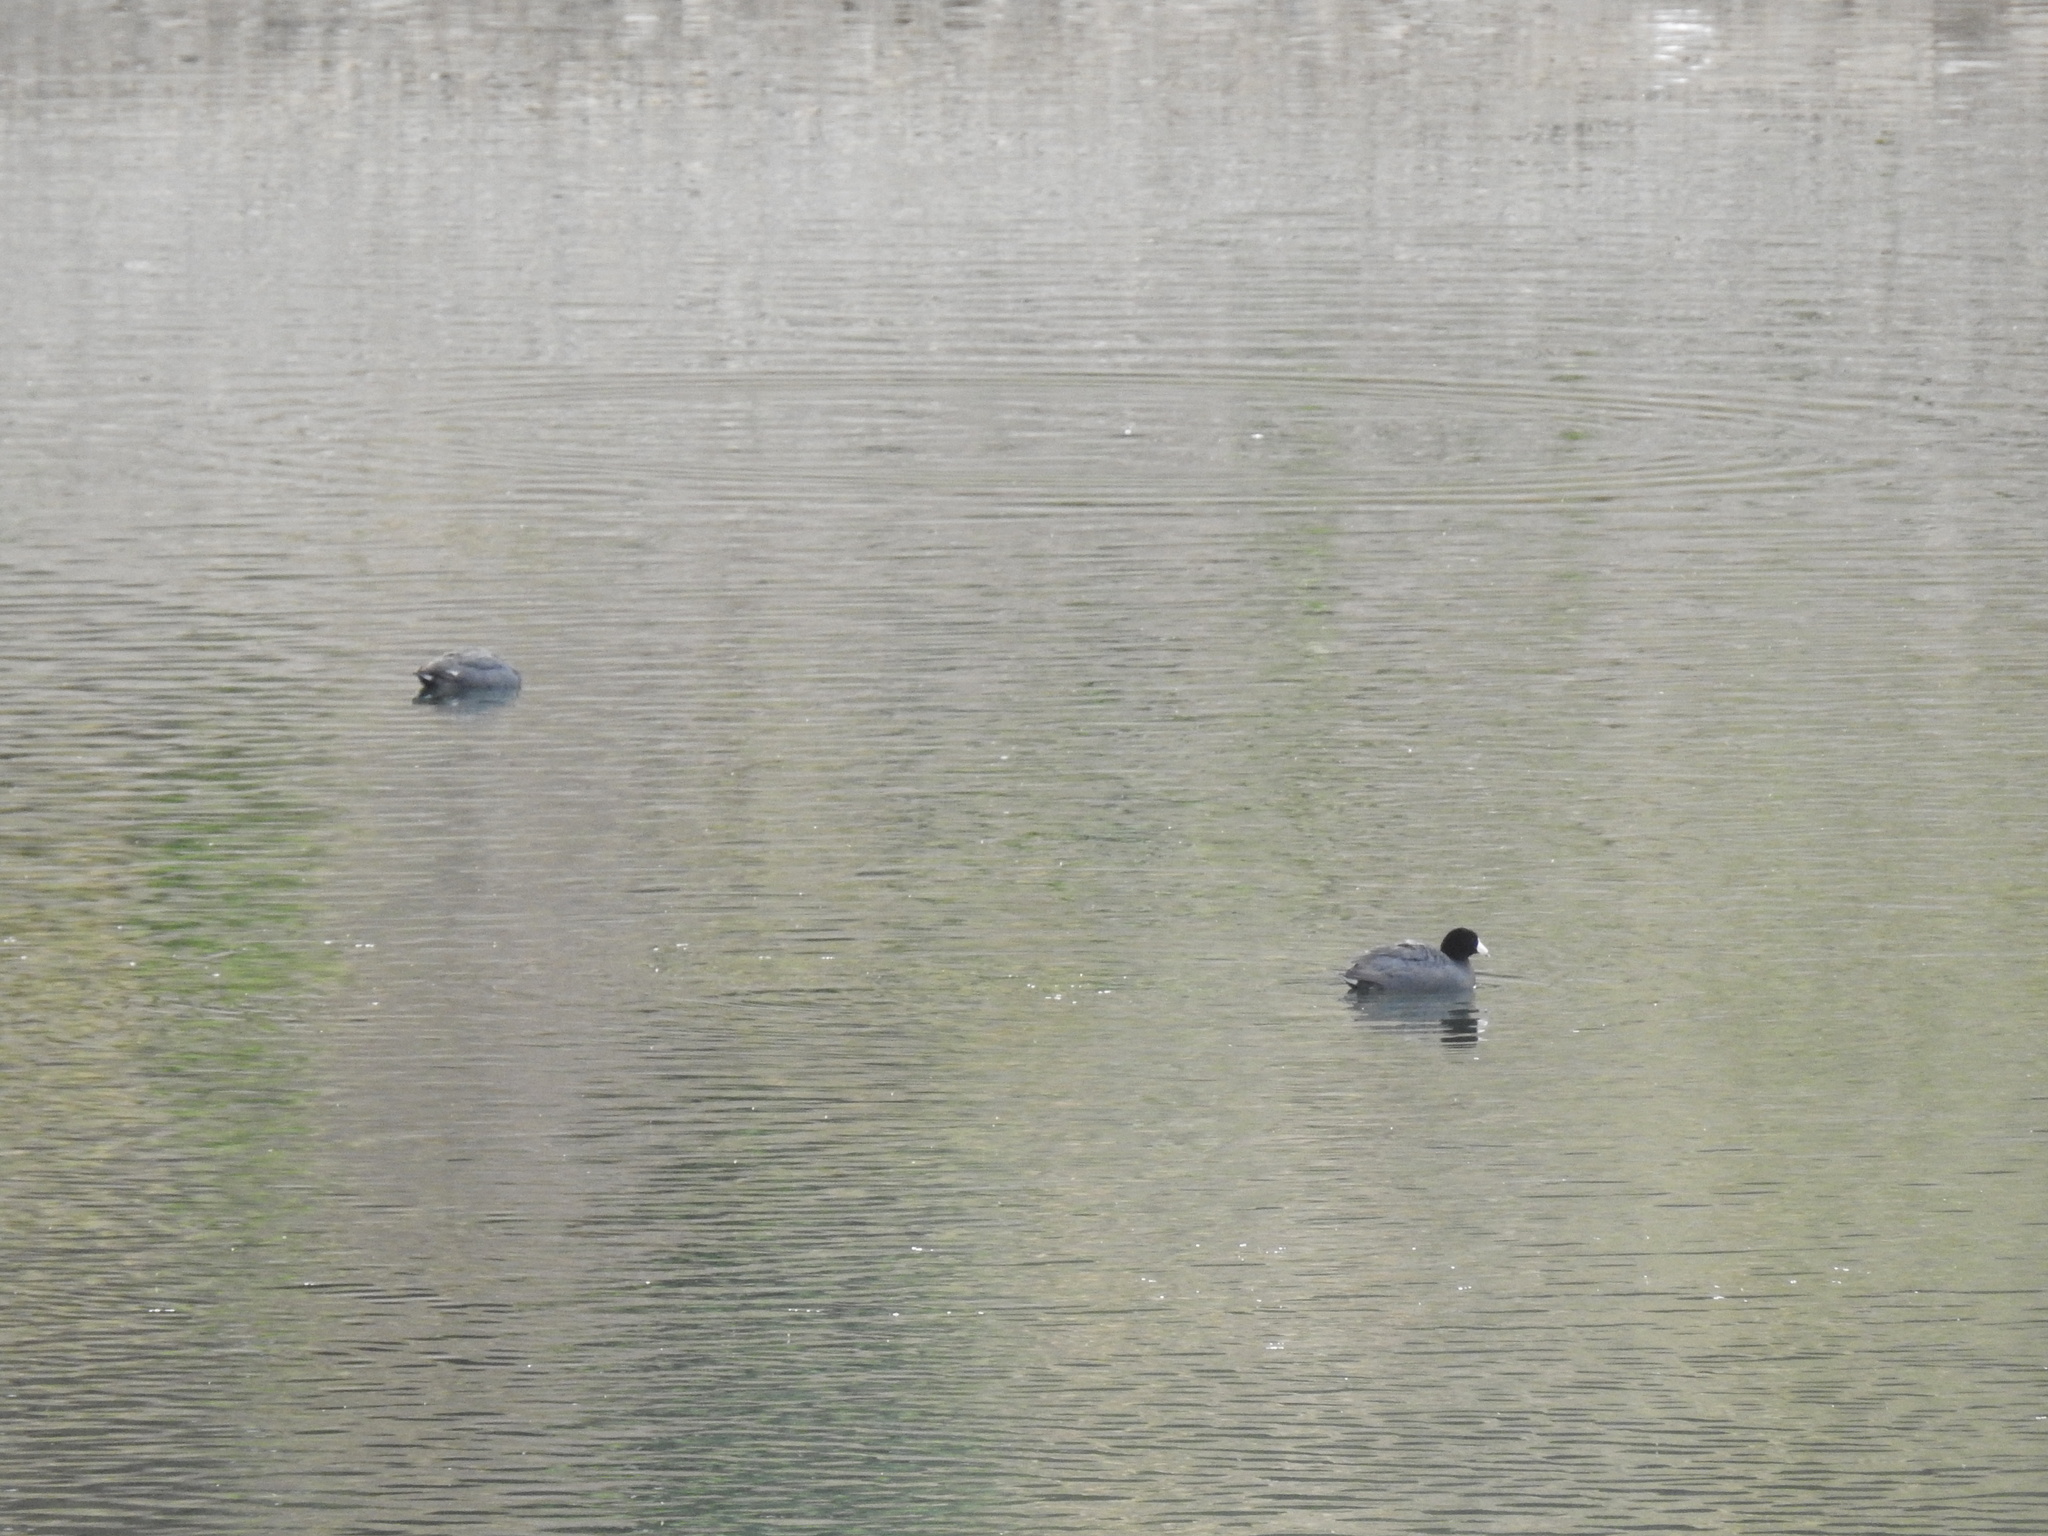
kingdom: Animalia
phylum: Chordata
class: Aves
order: Gruiformes
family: Rallidae
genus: Fulica
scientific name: Fulica americana
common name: American coot
